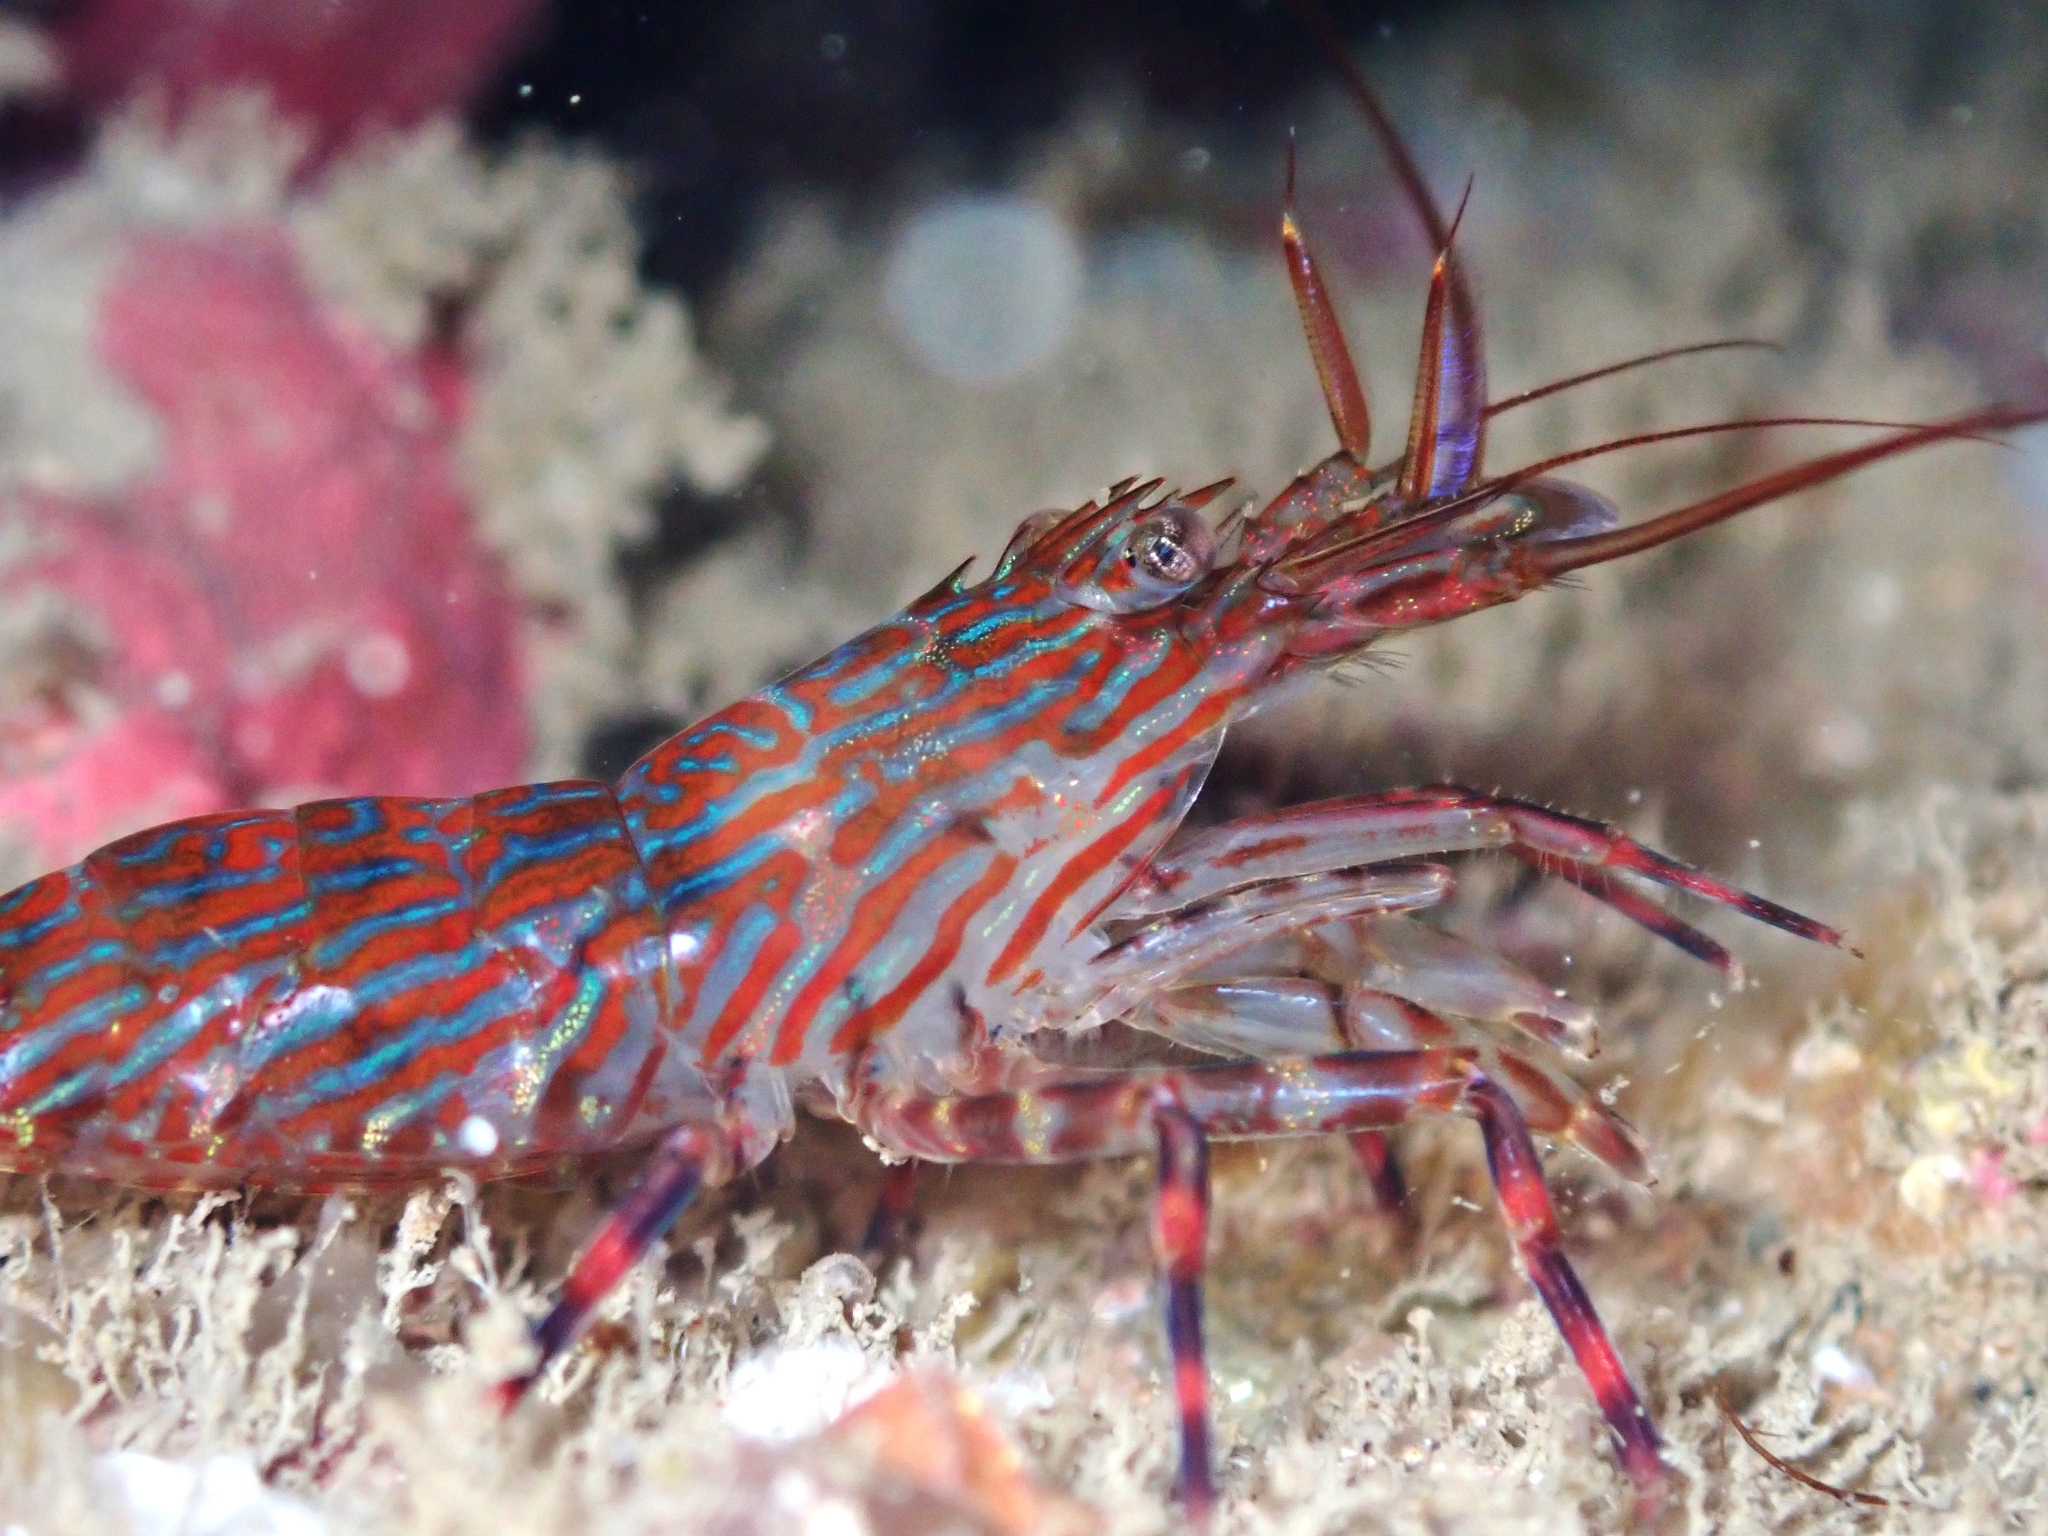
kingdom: Animalia
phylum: Arthropoda
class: Malacostraca
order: Decapoda
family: Hippolytidae
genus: Alope
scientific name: Alope spinifrons
